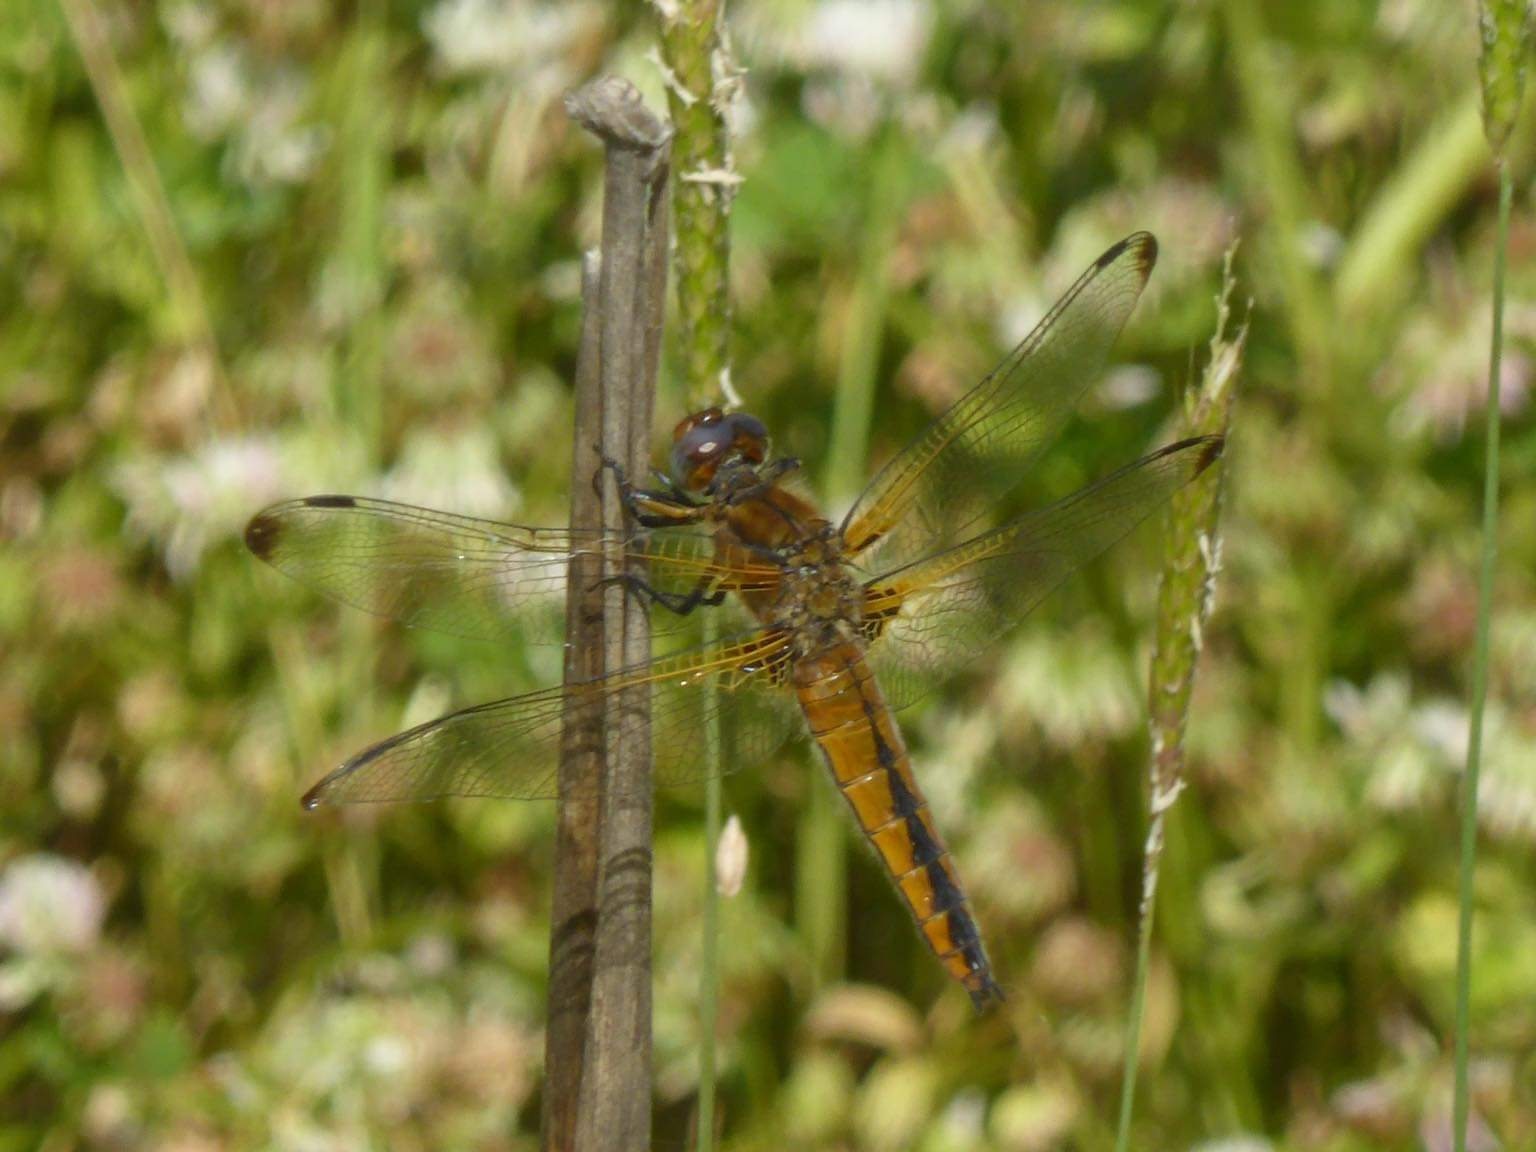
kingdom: Animalia
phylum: Arthropoda
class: Insecta
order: Odonata
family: Libellulidae
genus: Libellula
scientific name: Libellula fulva
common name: Blue chaser
